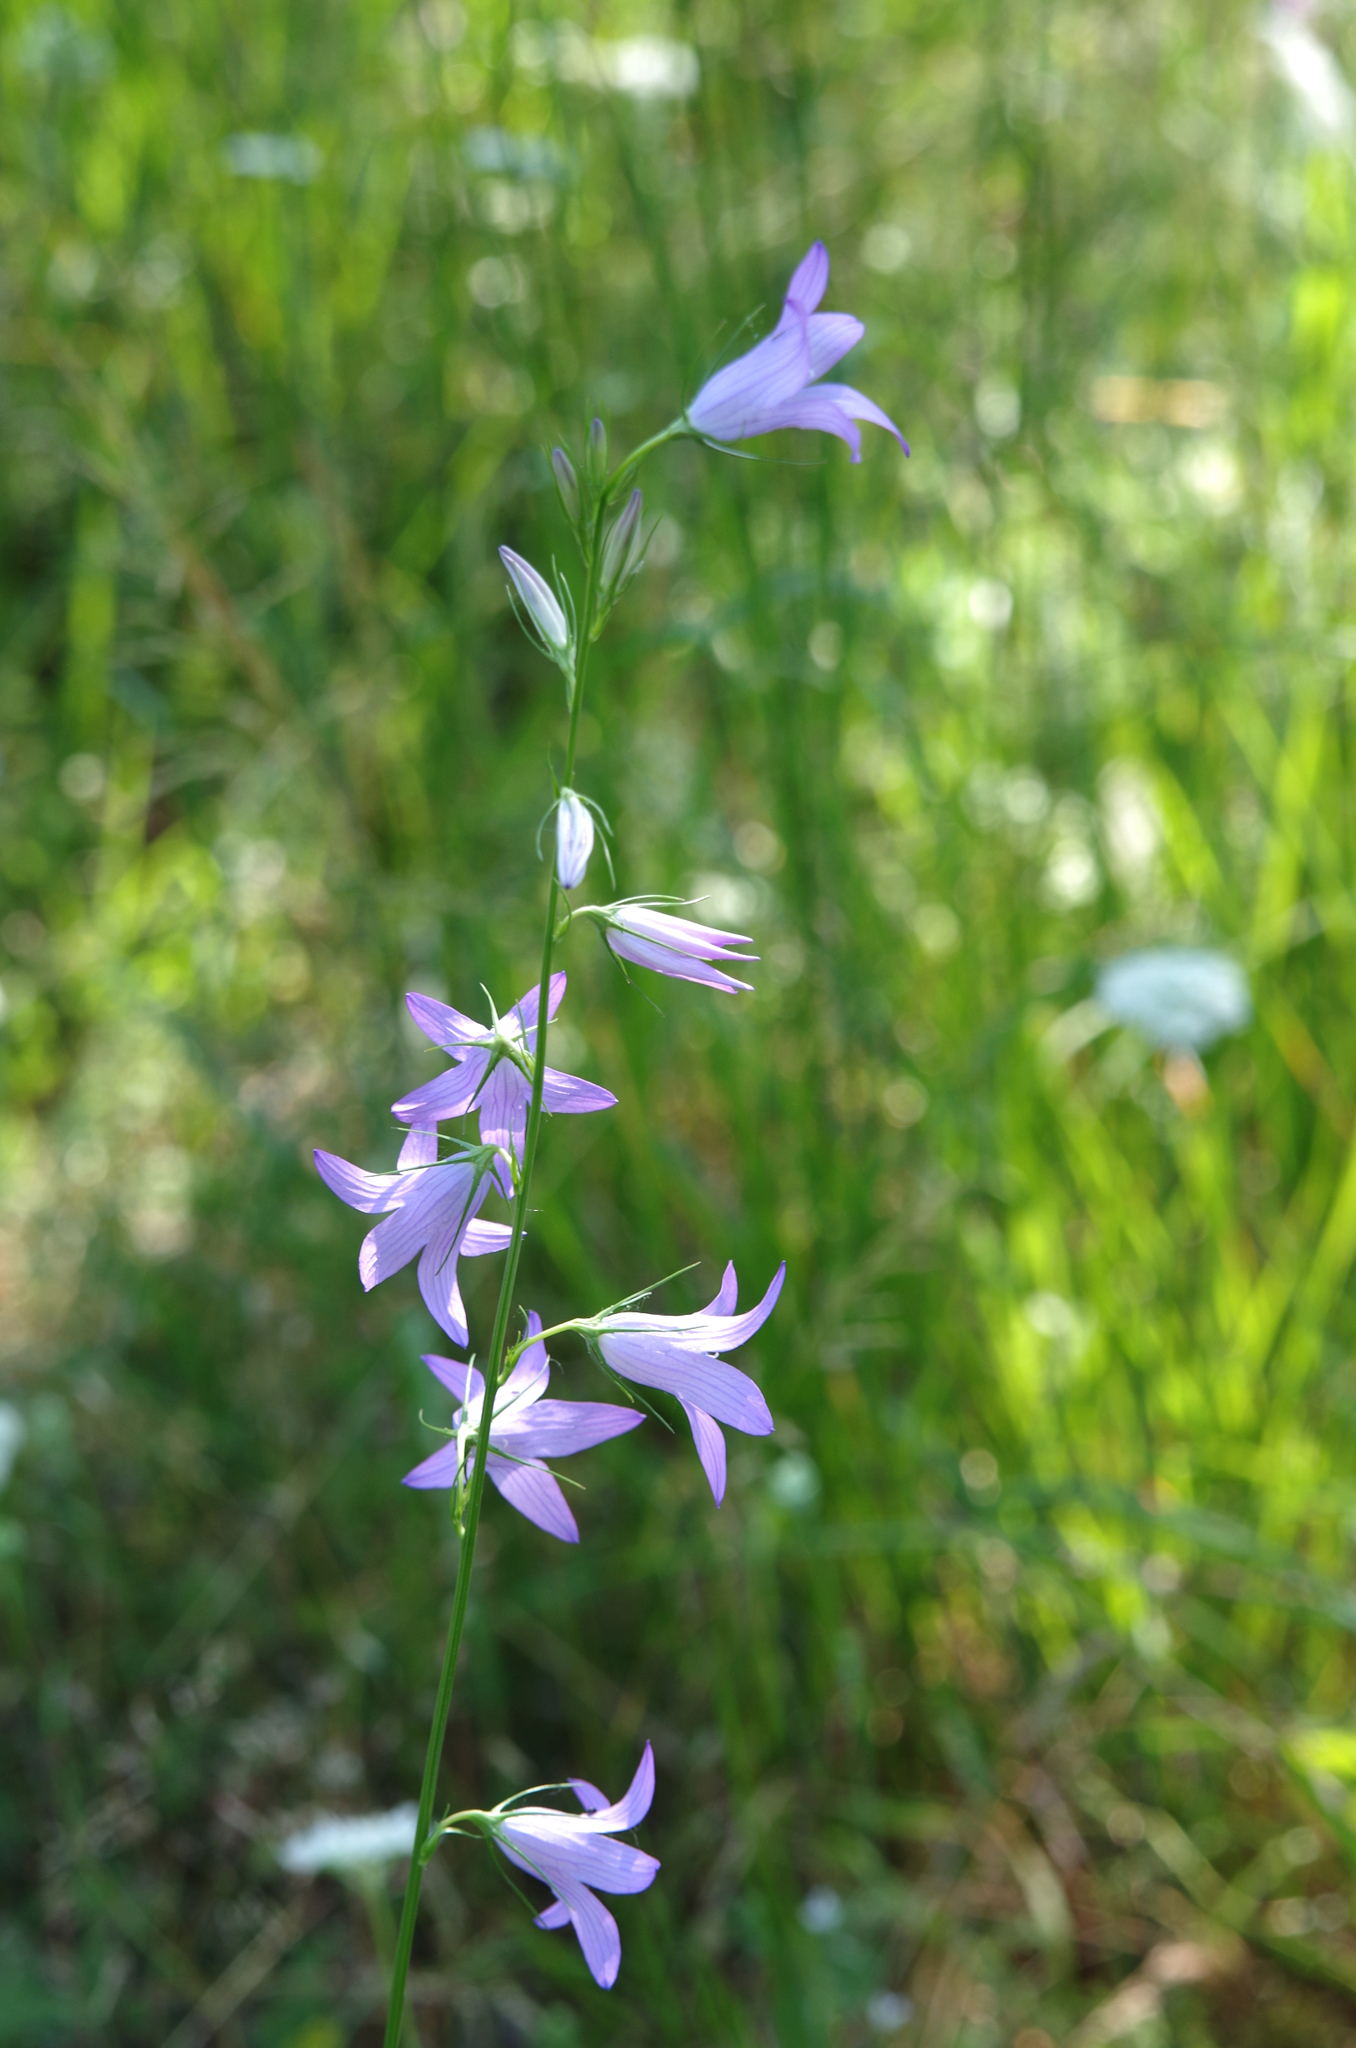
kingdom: Plantae
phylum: Tracheophyta
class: Magnoliopsida
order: Asterales
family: Campanulaceae
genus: Campanula
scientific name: Campanula patula
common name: Spreading bellflower
